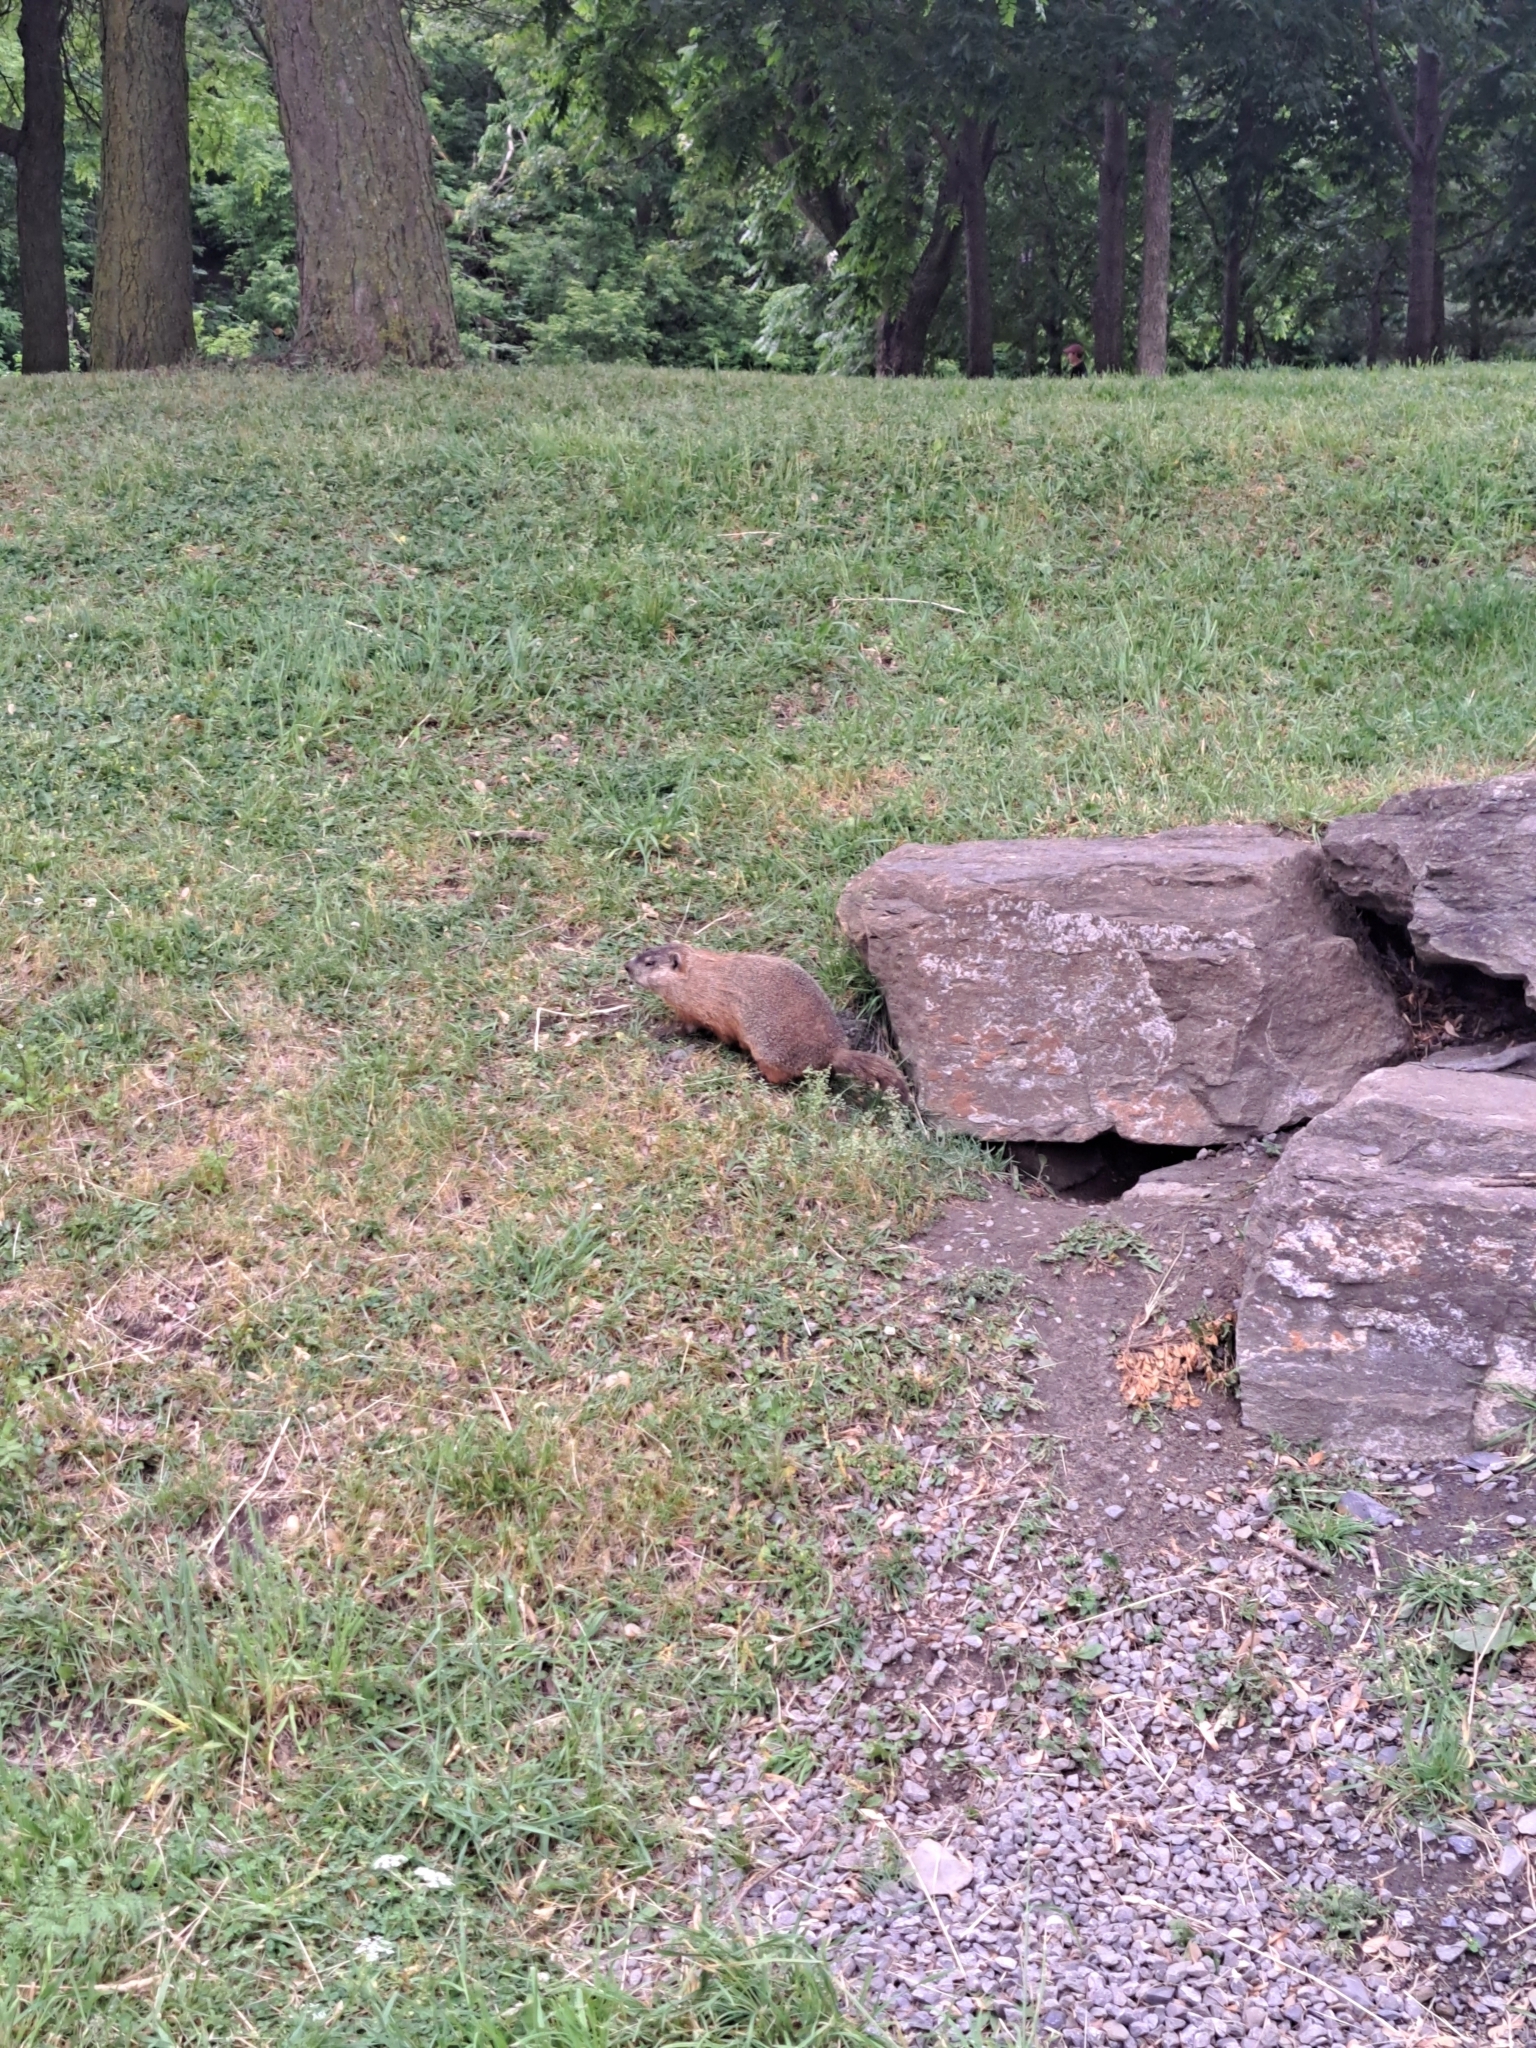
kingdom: Animalia
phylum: Chordata
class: Mammalia
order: Rodentia
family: Sciuridae
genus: Marmota
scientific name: Marmota monax
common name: Groundhog
